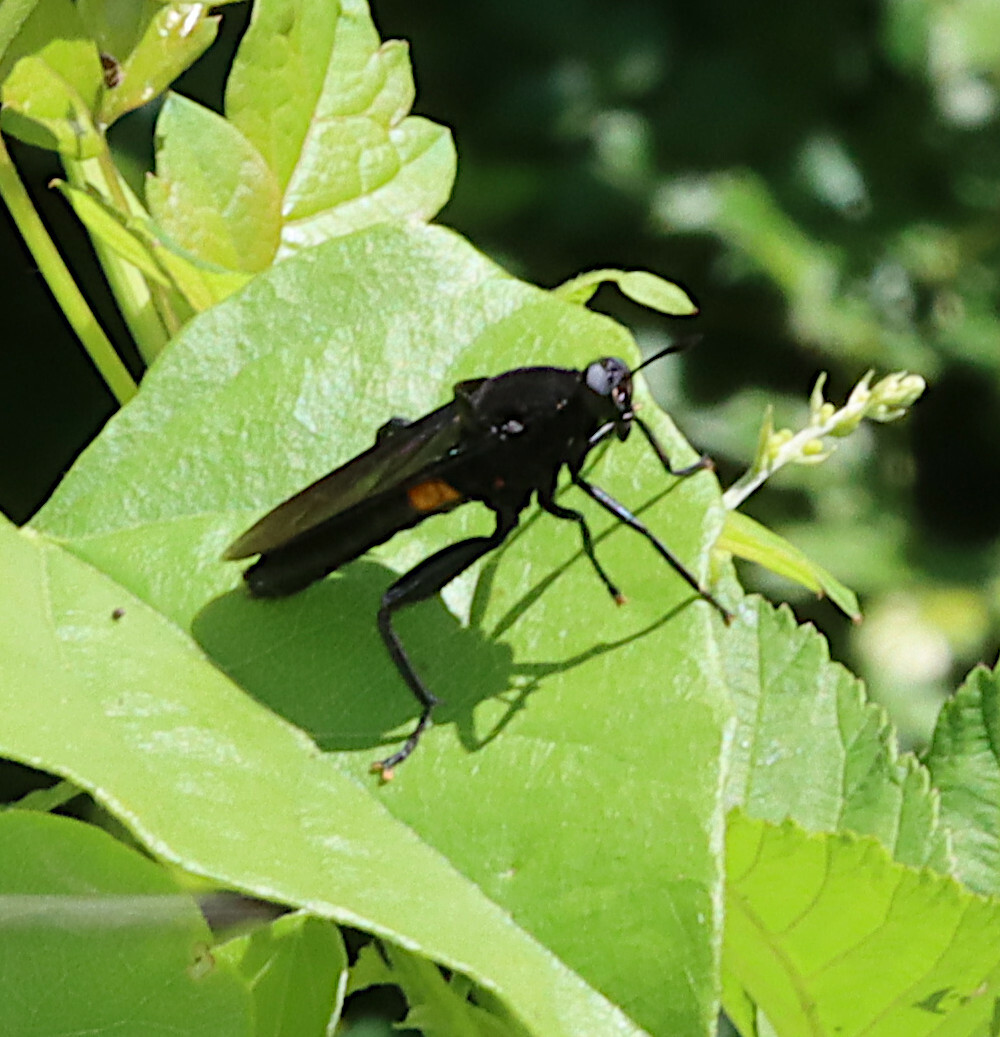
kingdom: Animalia
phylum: Arthropoda
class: Insecta
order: Diptera
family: Mydidae
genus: Mydas
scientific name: Mydas clavatus
